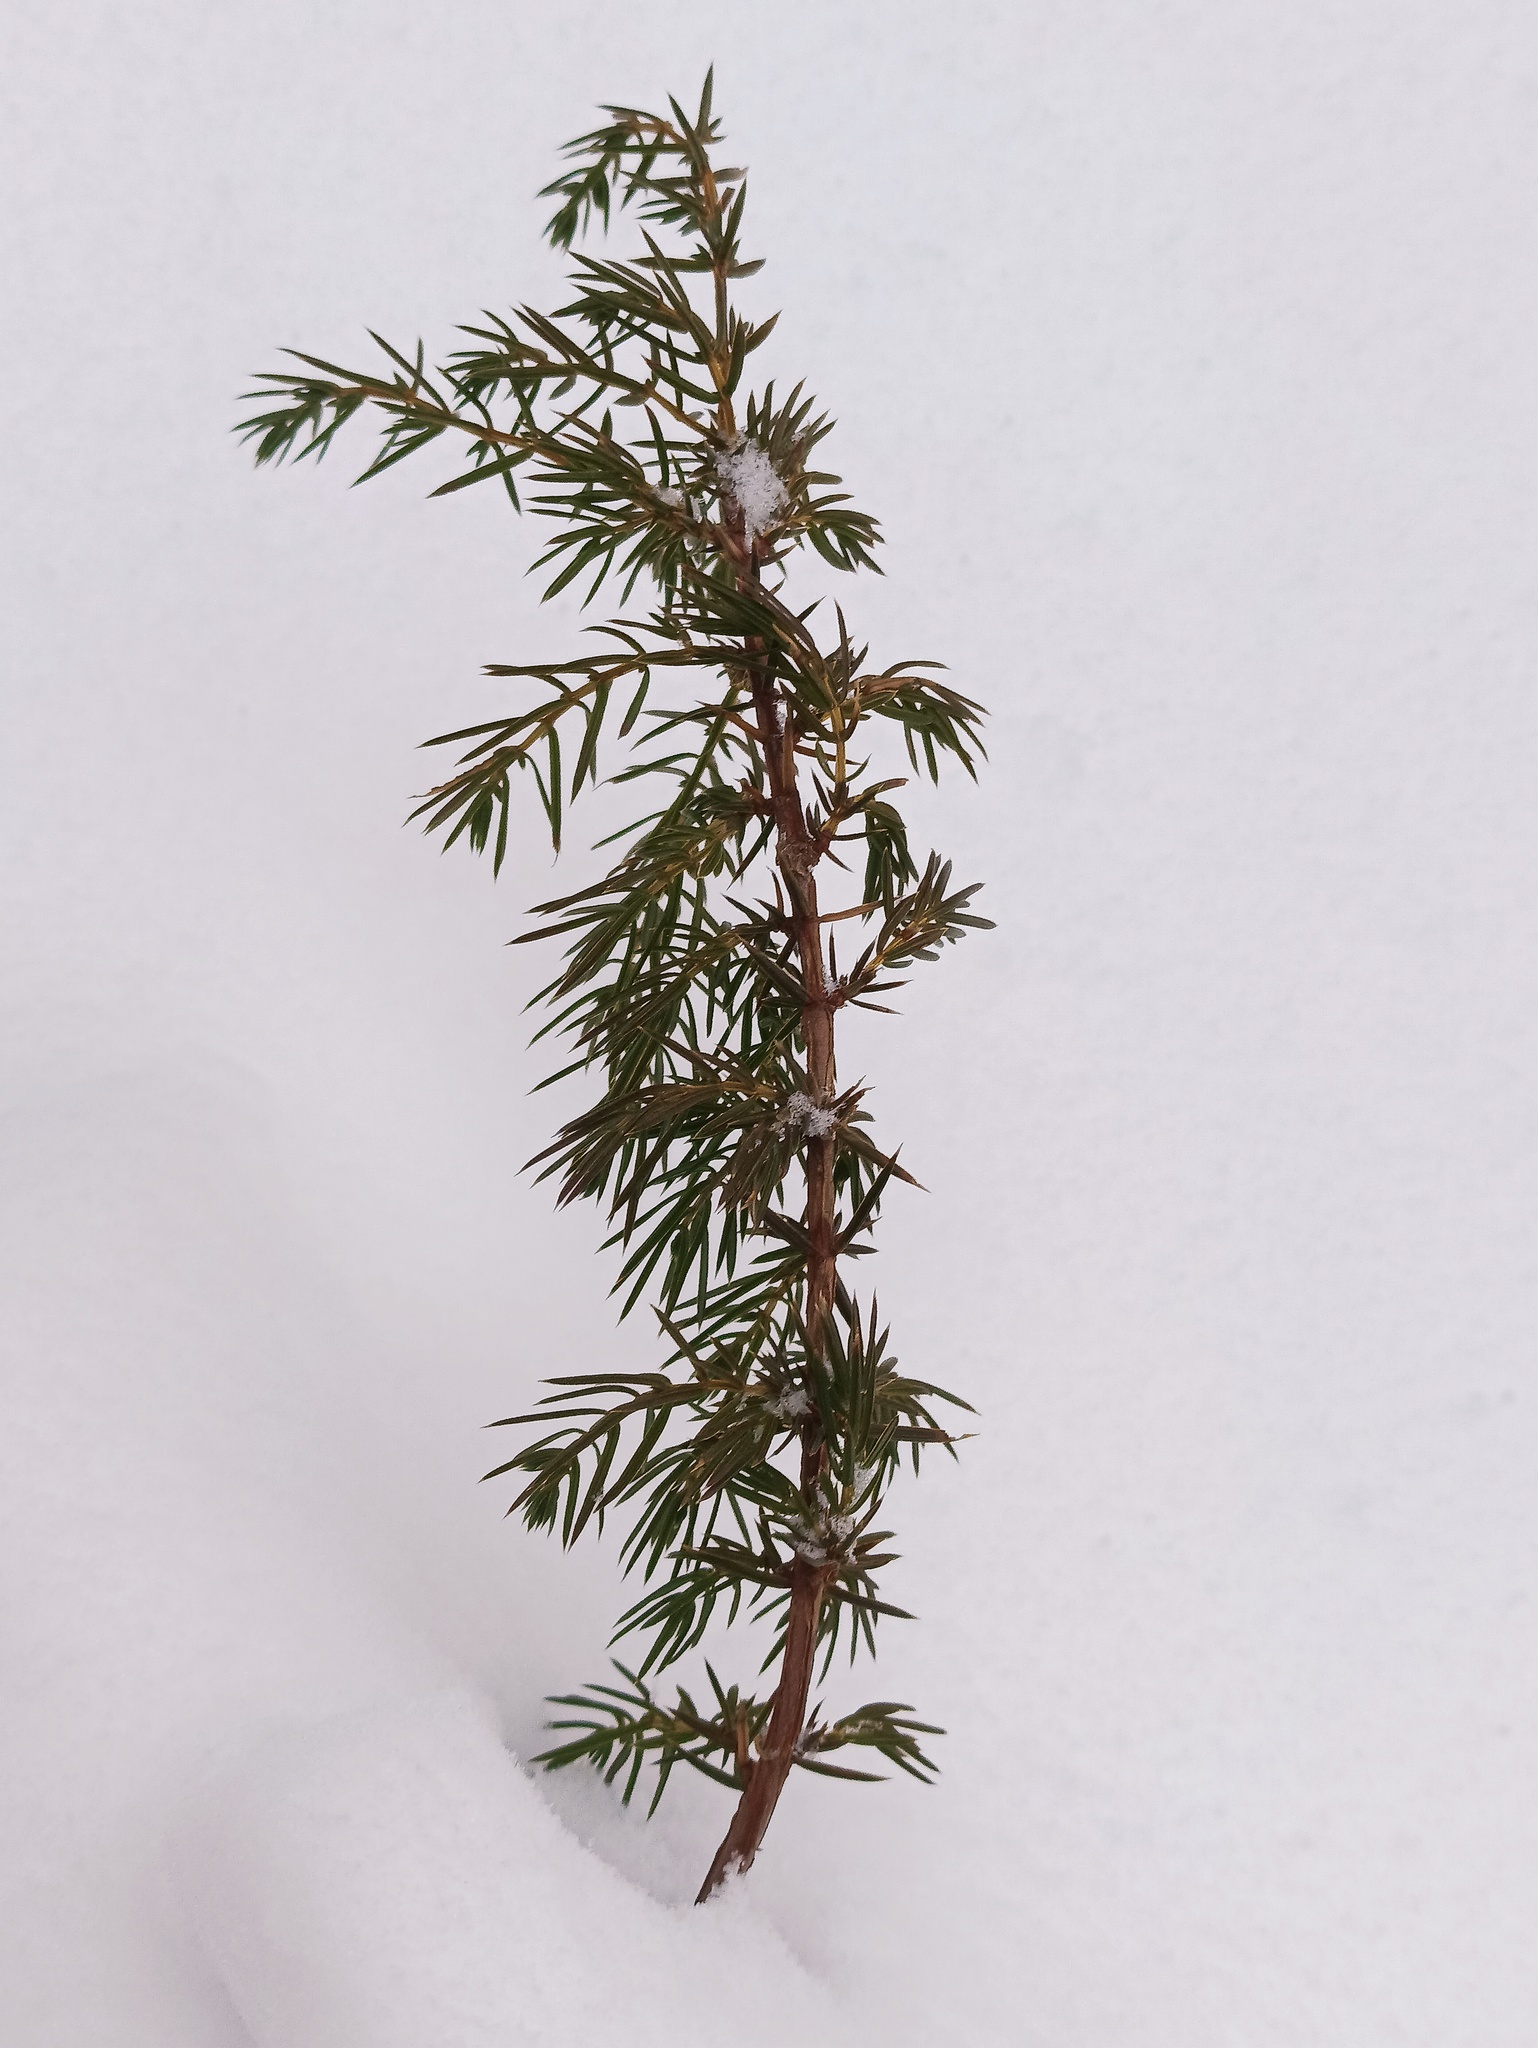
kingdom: Plantae
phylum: Tracheophyta
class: Pinopsida
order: Pinales
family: Cupressaceae
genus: Juniperus
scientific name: Juniperus communis
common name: Common juniper
